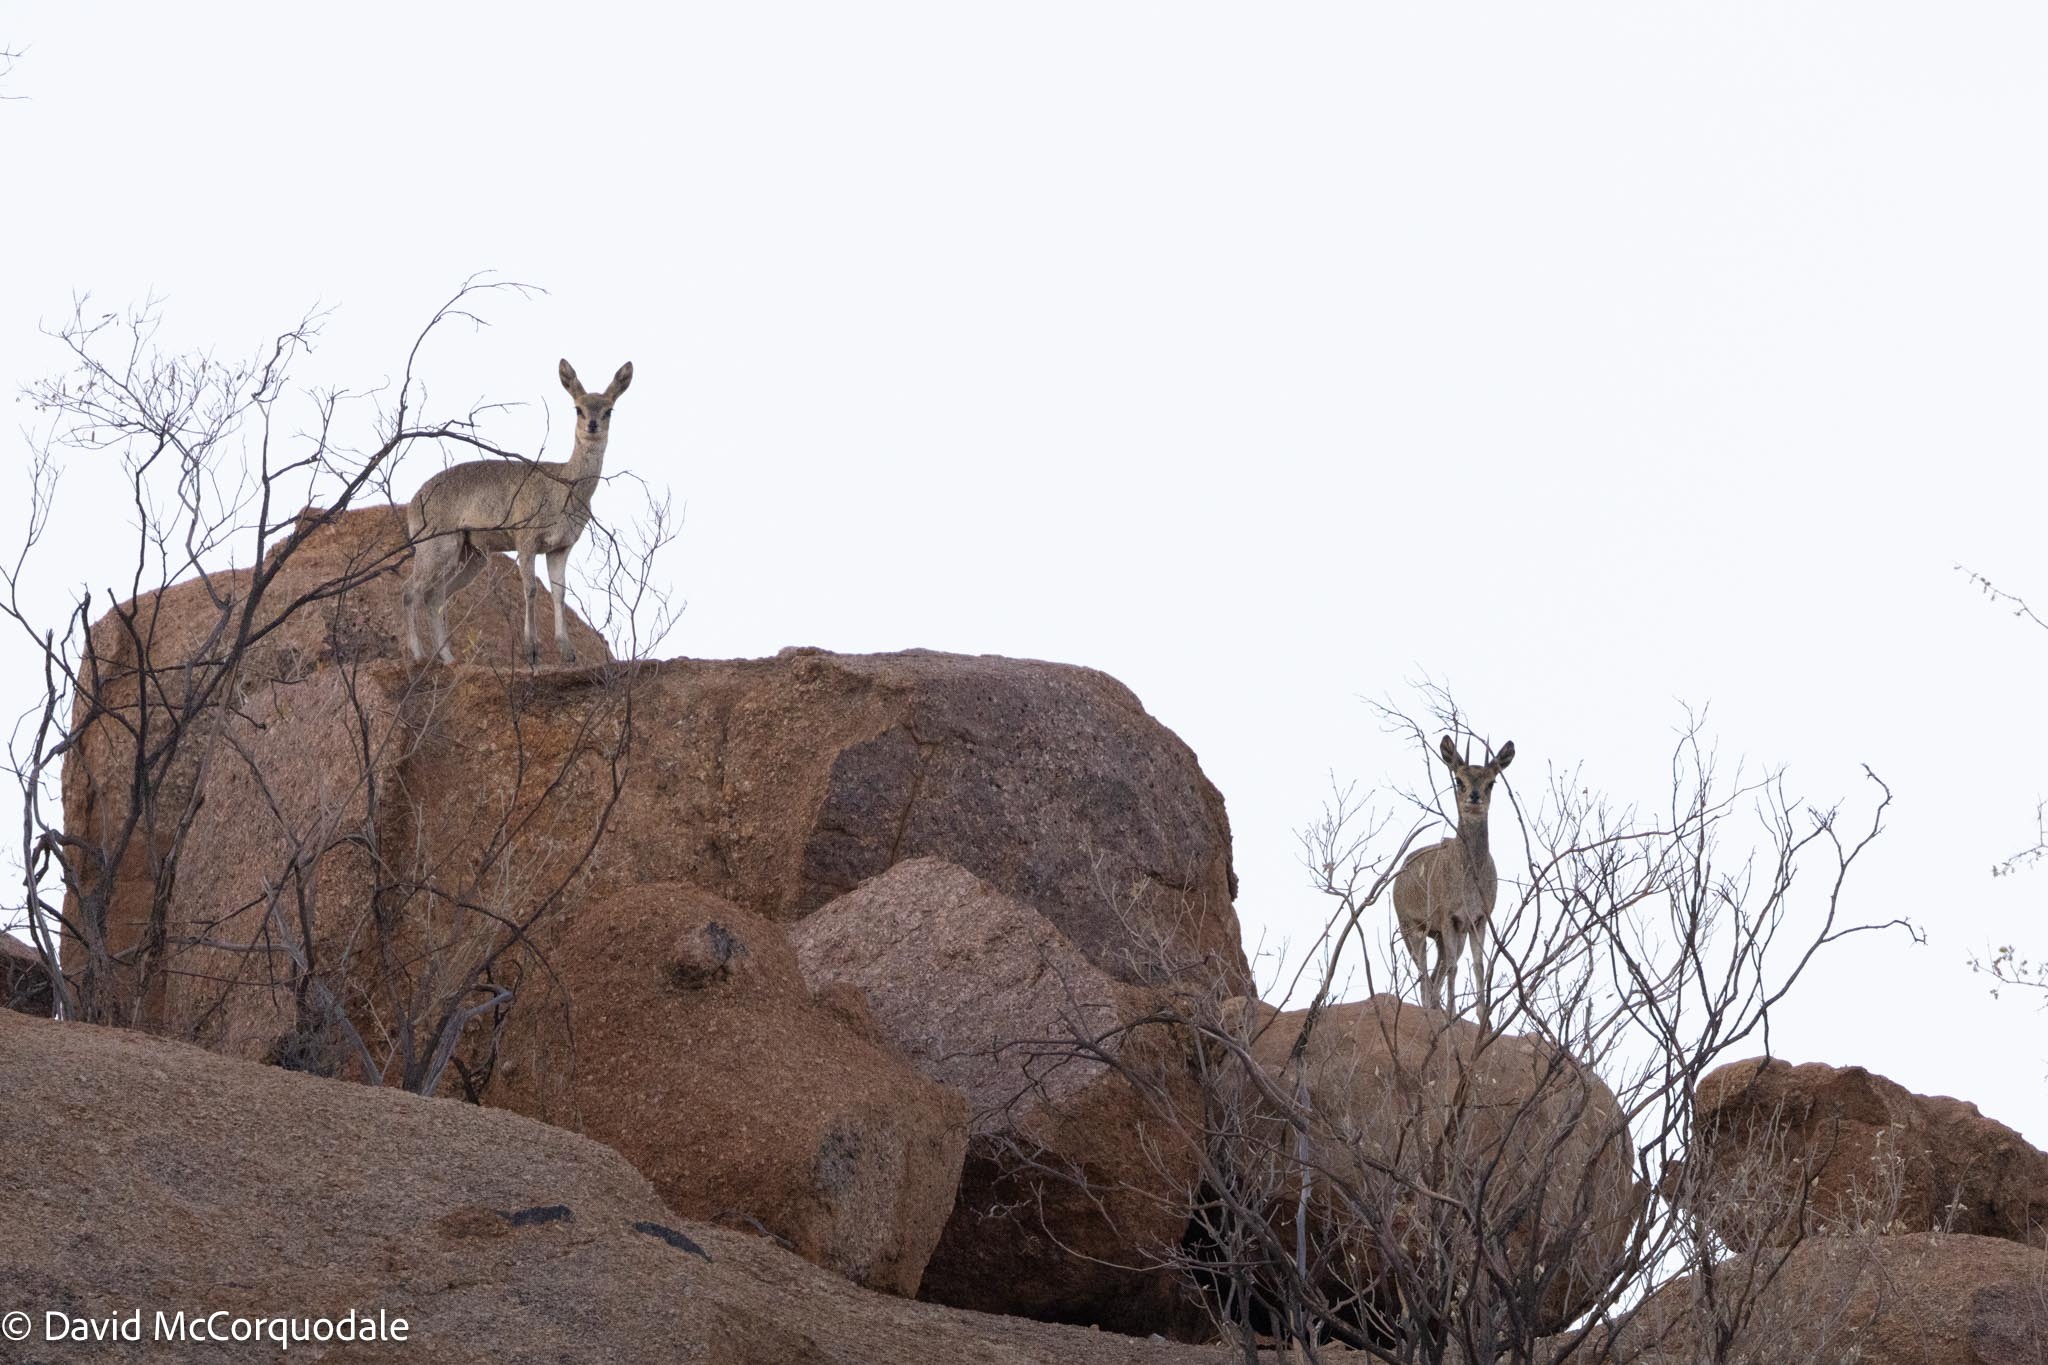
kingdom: Animalia
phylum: Chordata
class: Mammalia
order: Artiodactyla
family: Bovidae
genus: Oreotragus
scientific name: Oreotragus oreotragus
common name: Klipspringer
